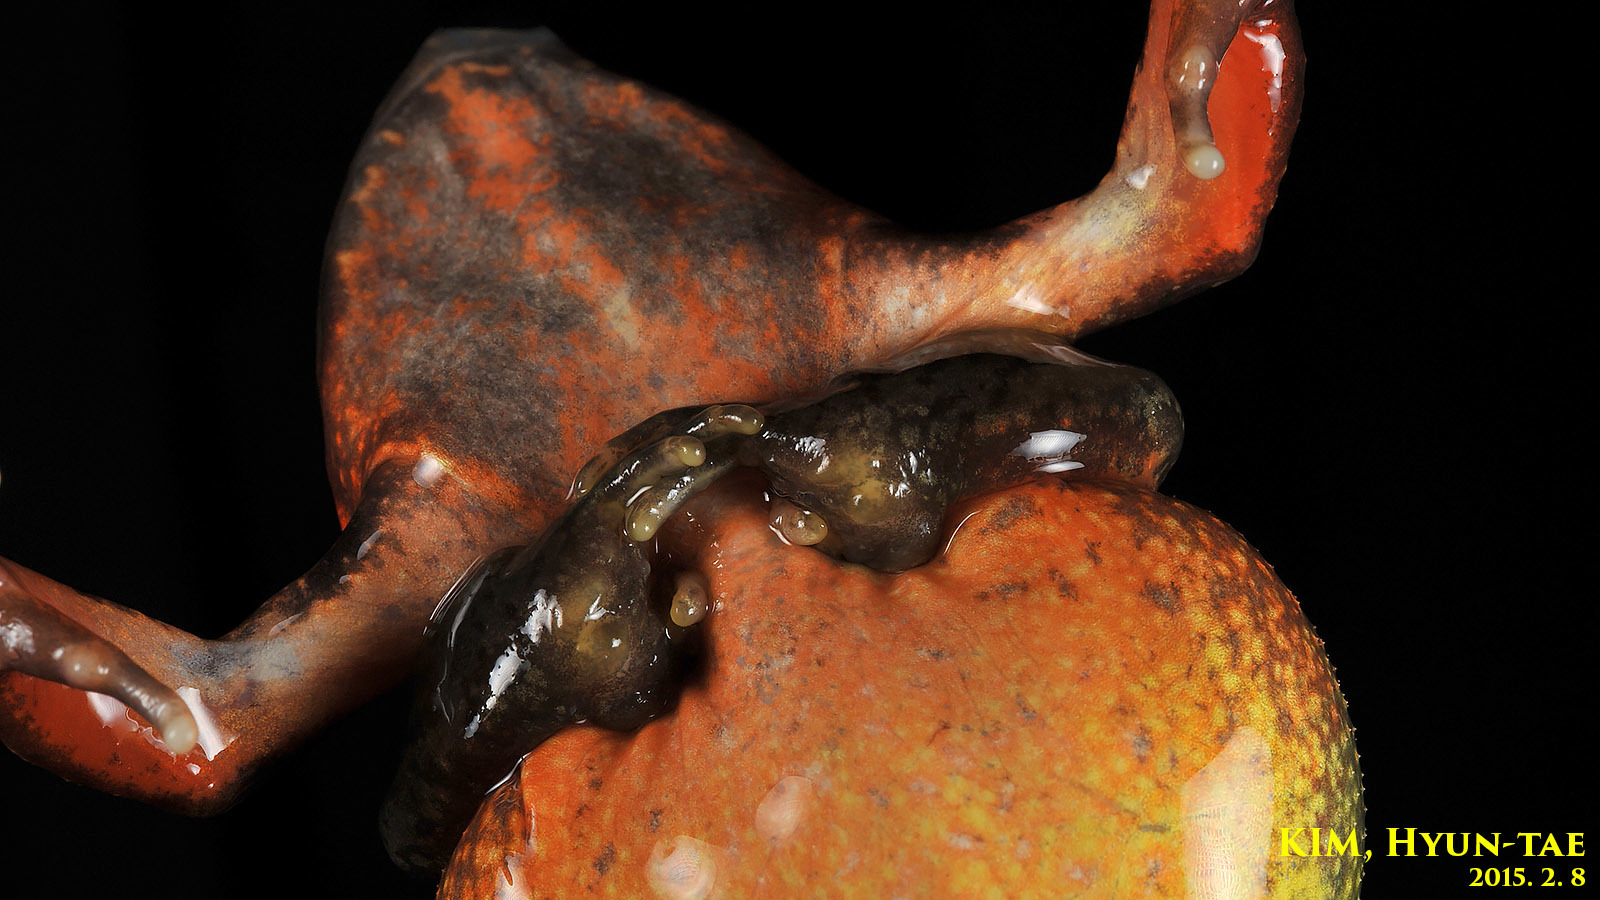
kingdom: Animalia
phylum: Chordata
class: Amphibia
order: Anura
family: Ranidae
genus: Rana
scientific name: Rana uenoi
